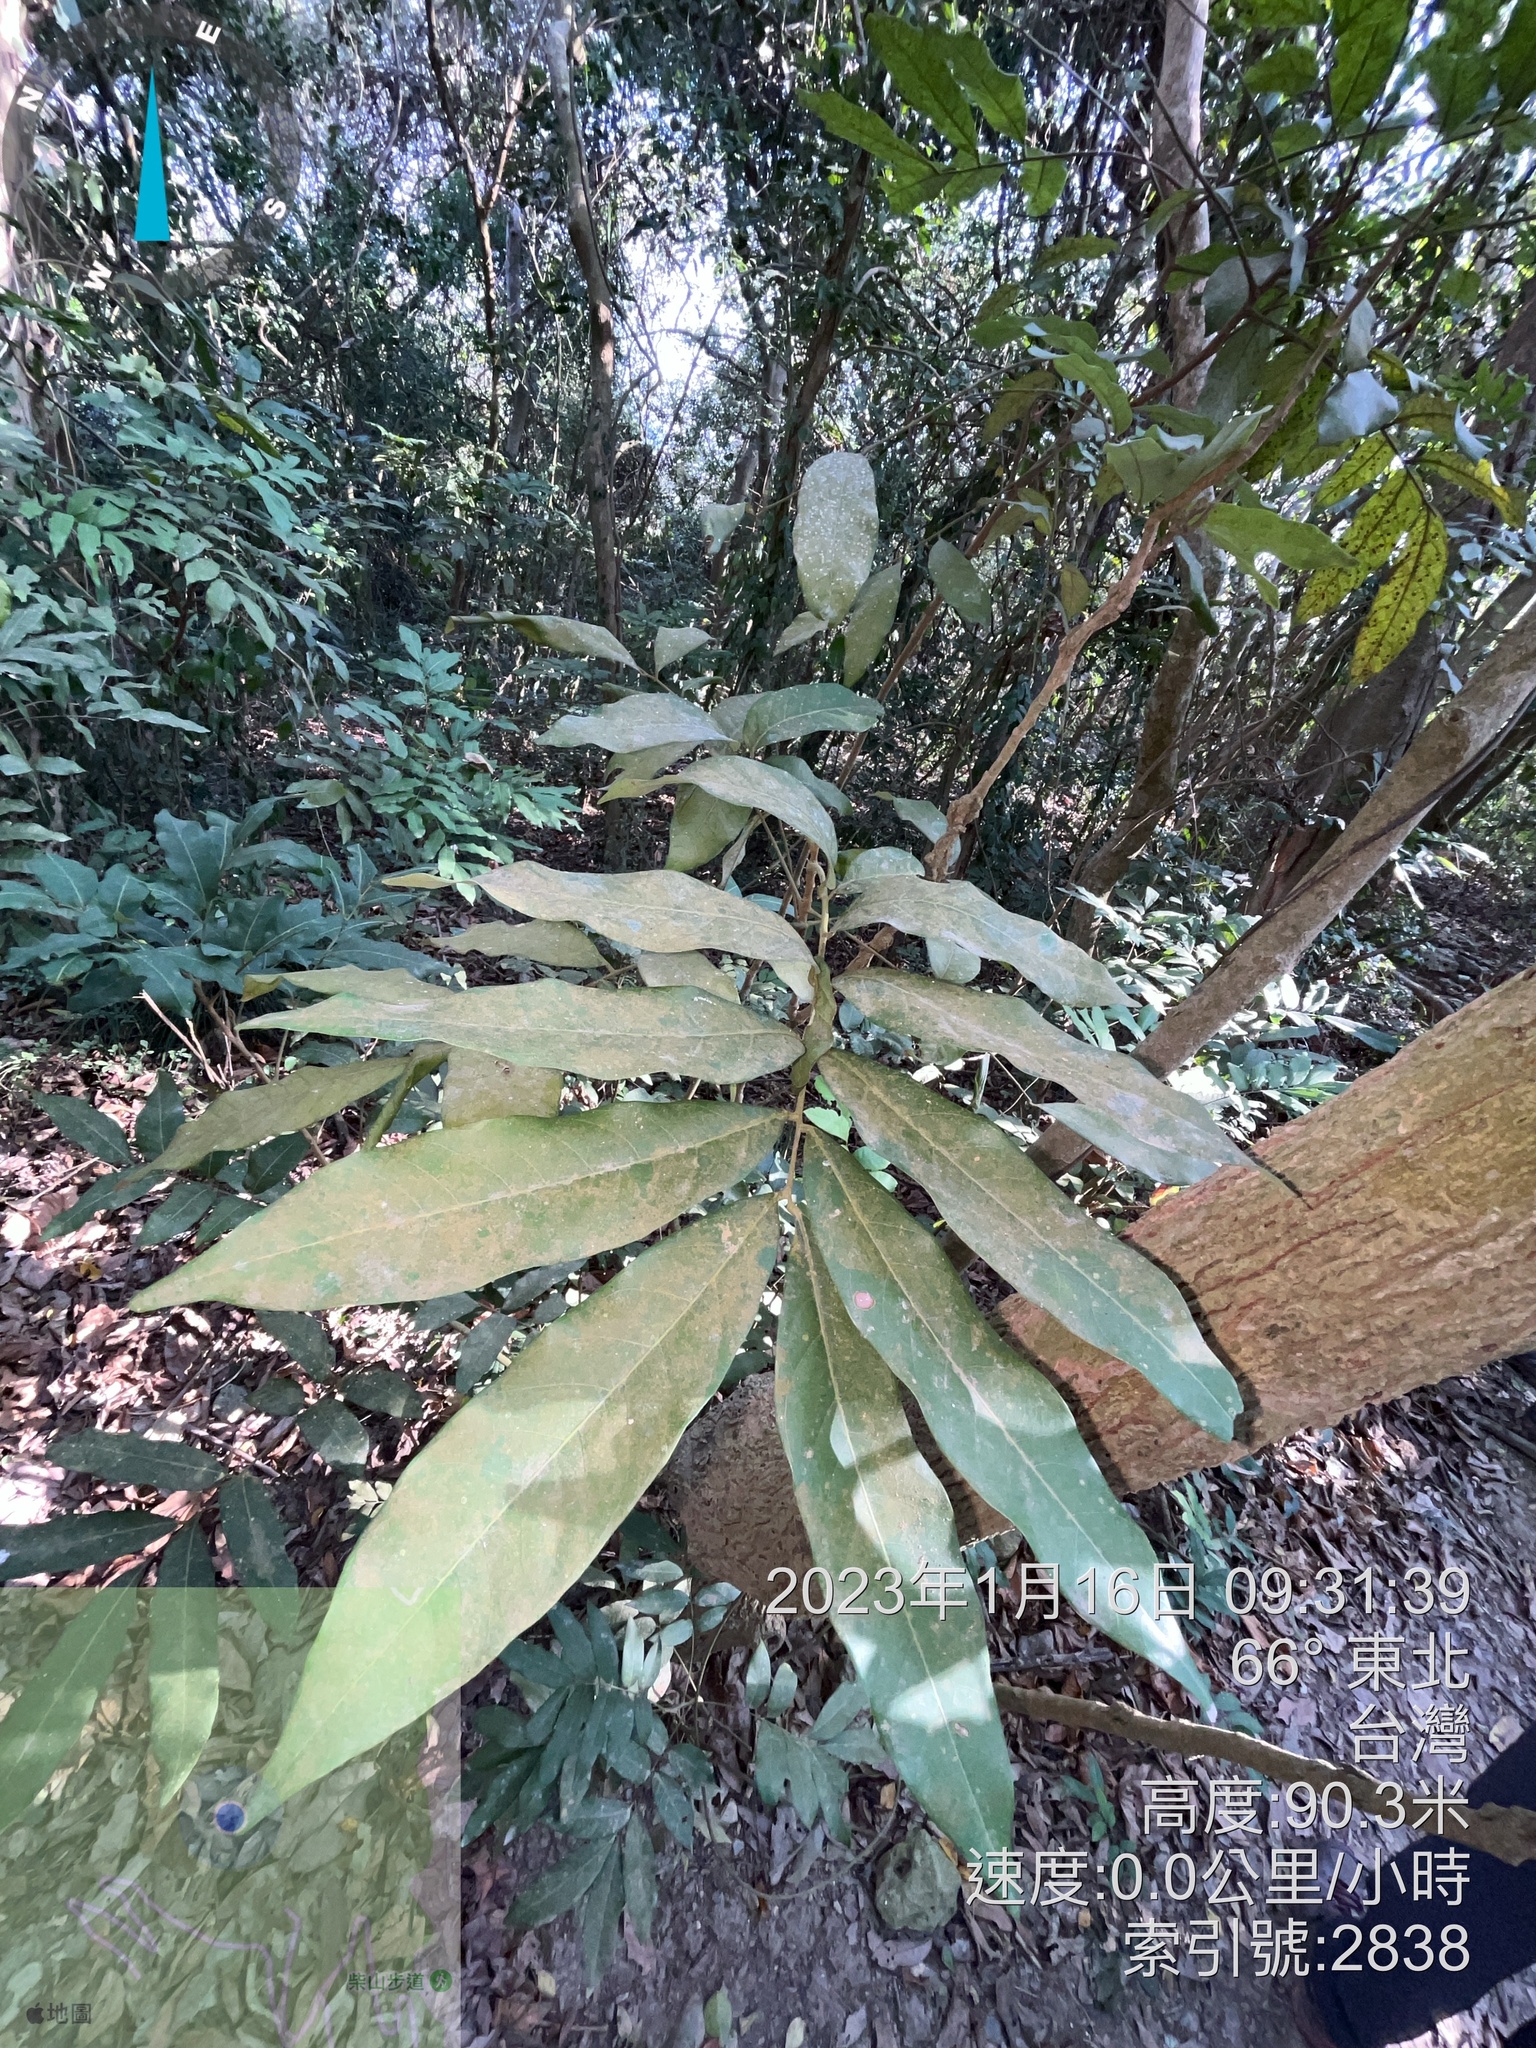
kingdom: Plantae
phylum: Tracheophyta
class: Magnoliopsida
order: Sapindales
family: Sapindaceae
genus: Dimocarpus
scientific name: Dimocarpus longan
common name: Longan
